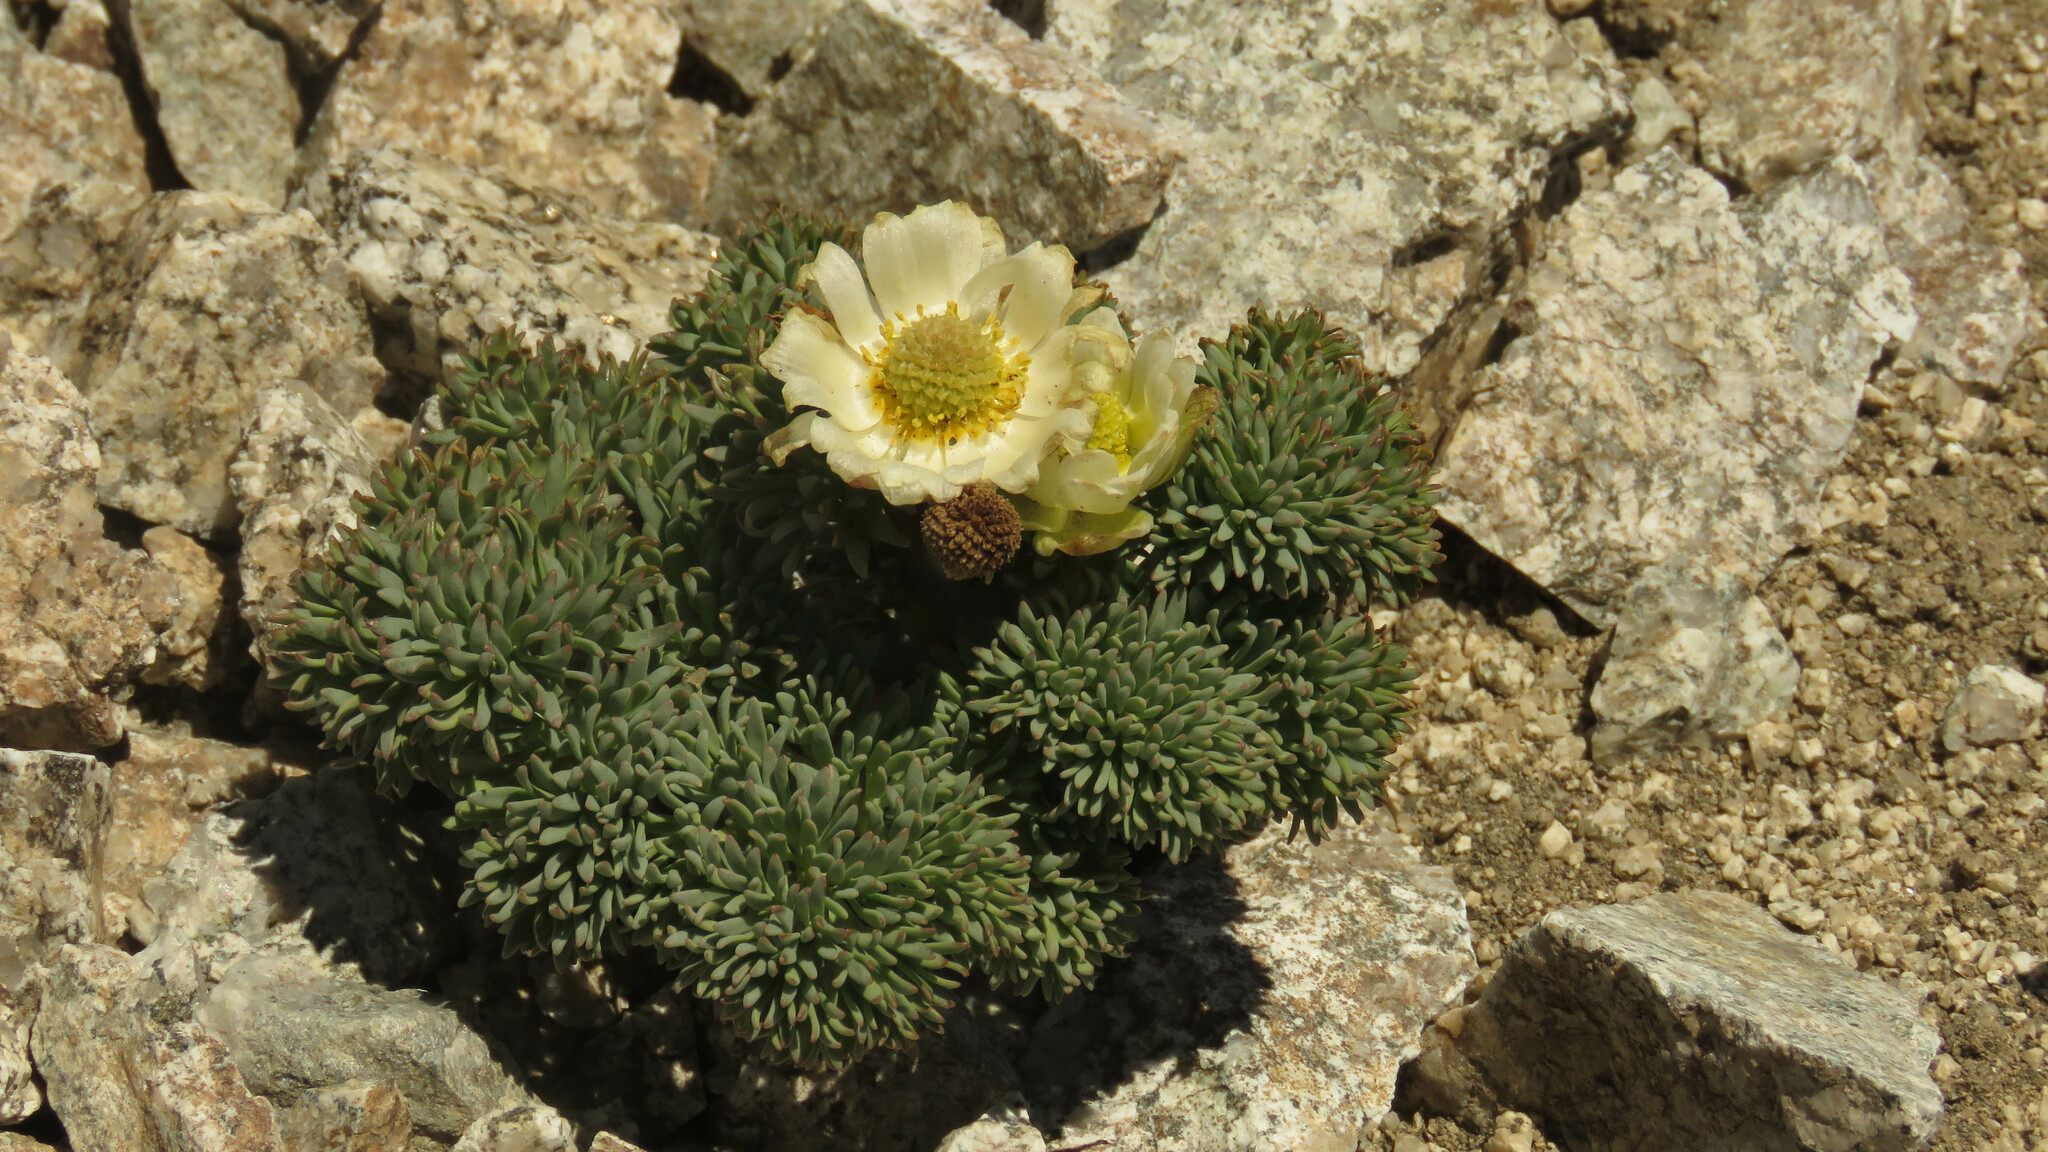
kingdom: Plantae
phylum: Tracheophyta
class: Magnoliopsida
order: Ranunculales
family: Ranunculaceae
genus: Callianthemoides
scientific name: Callianthemoides semiverticillatus
